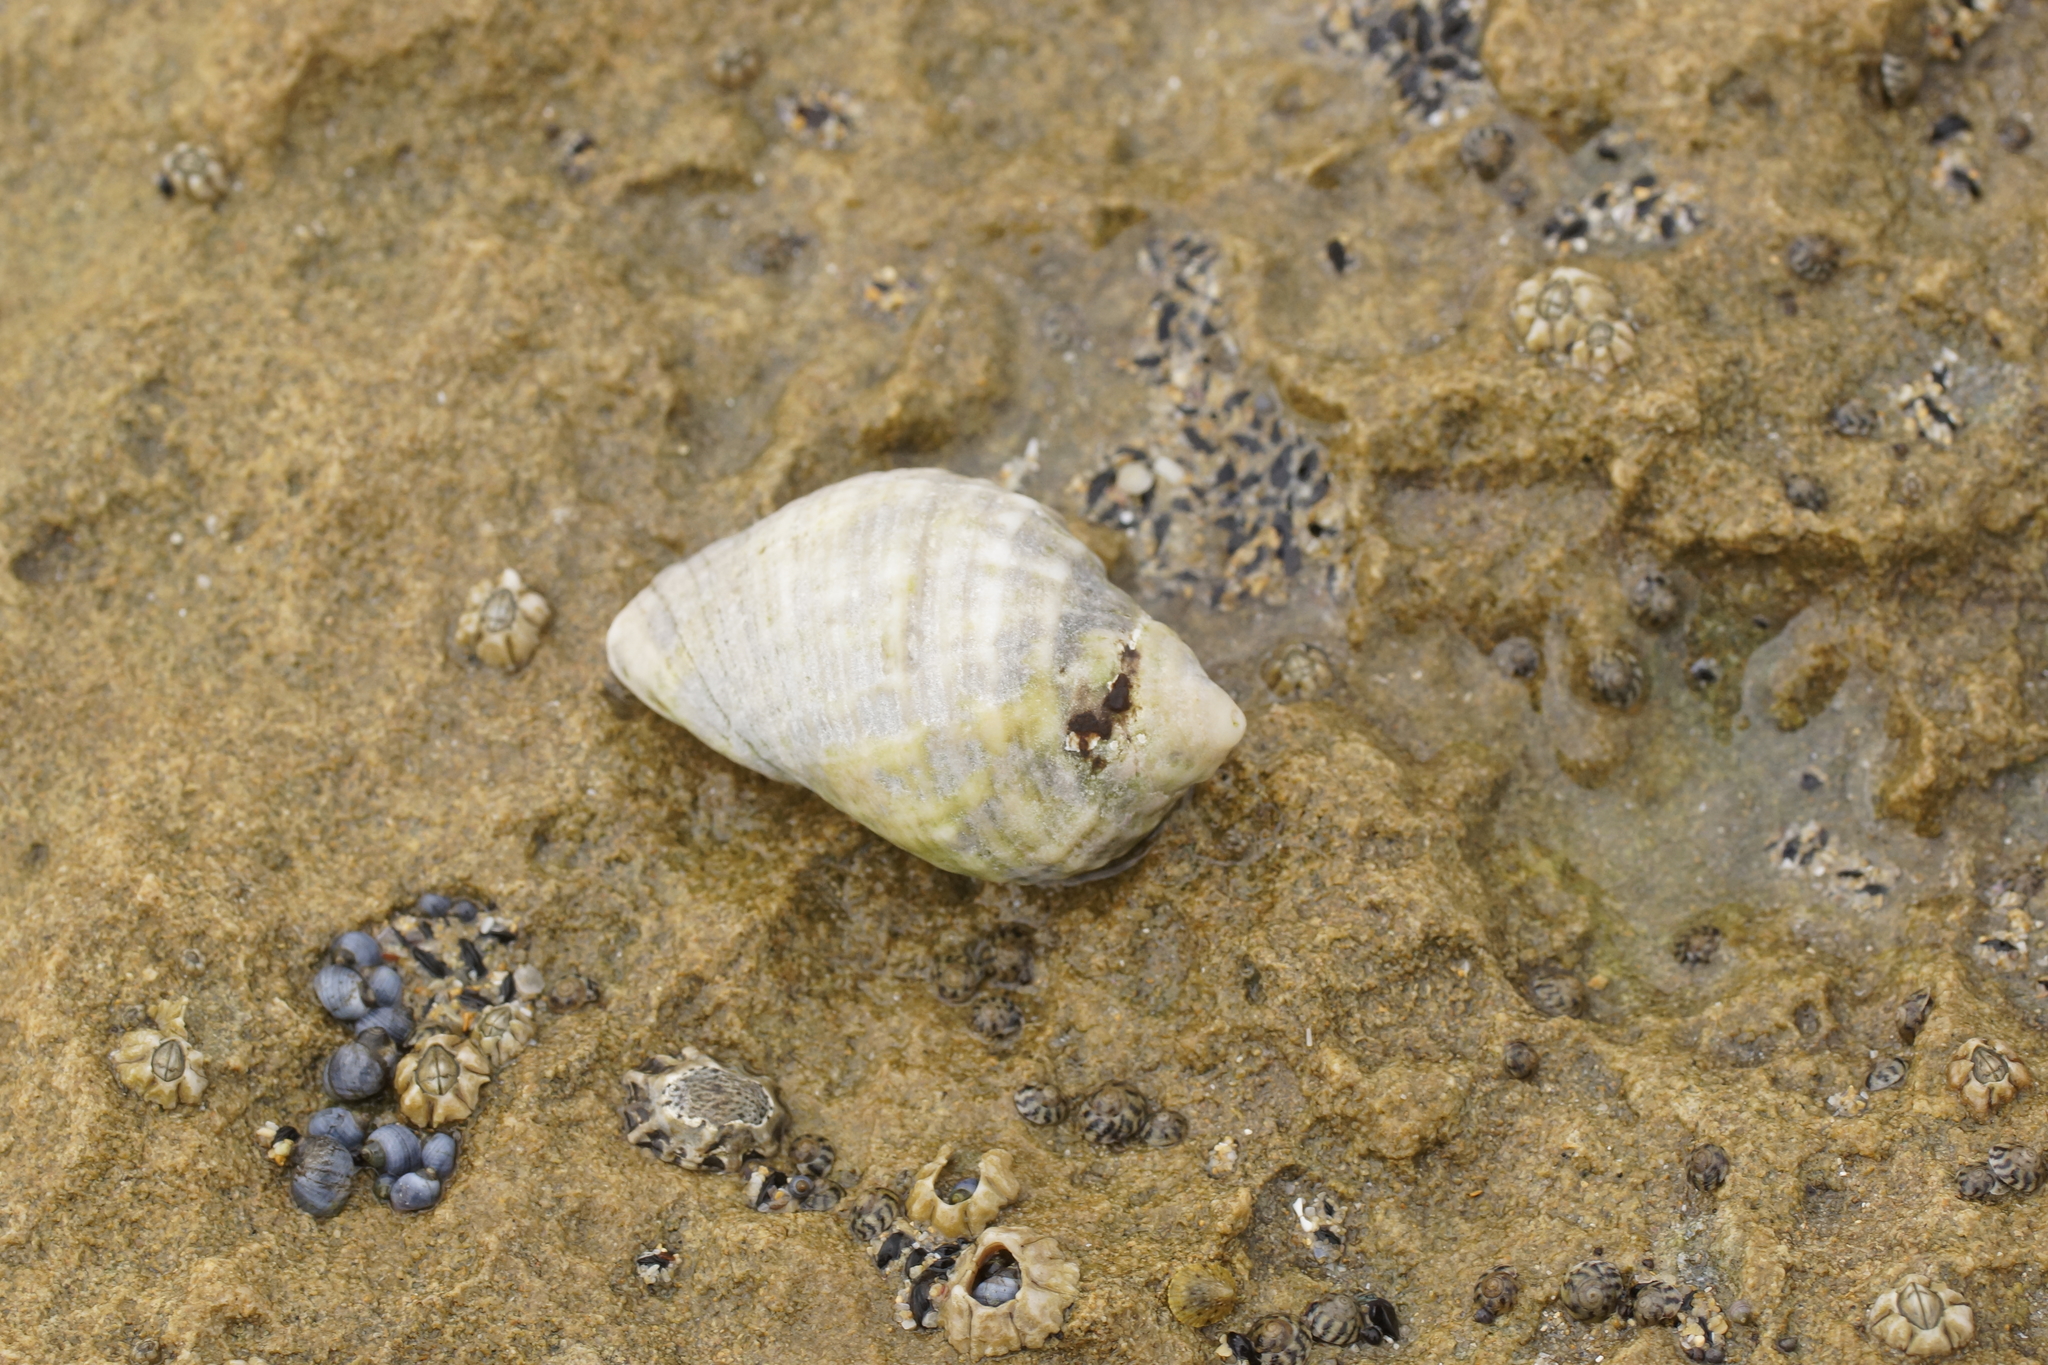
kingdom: Animalia
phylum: Mollusca
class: Gastropoda
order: Neogastropoda
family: Muricidae
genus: Dicathais
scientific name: Dicathais orbita
